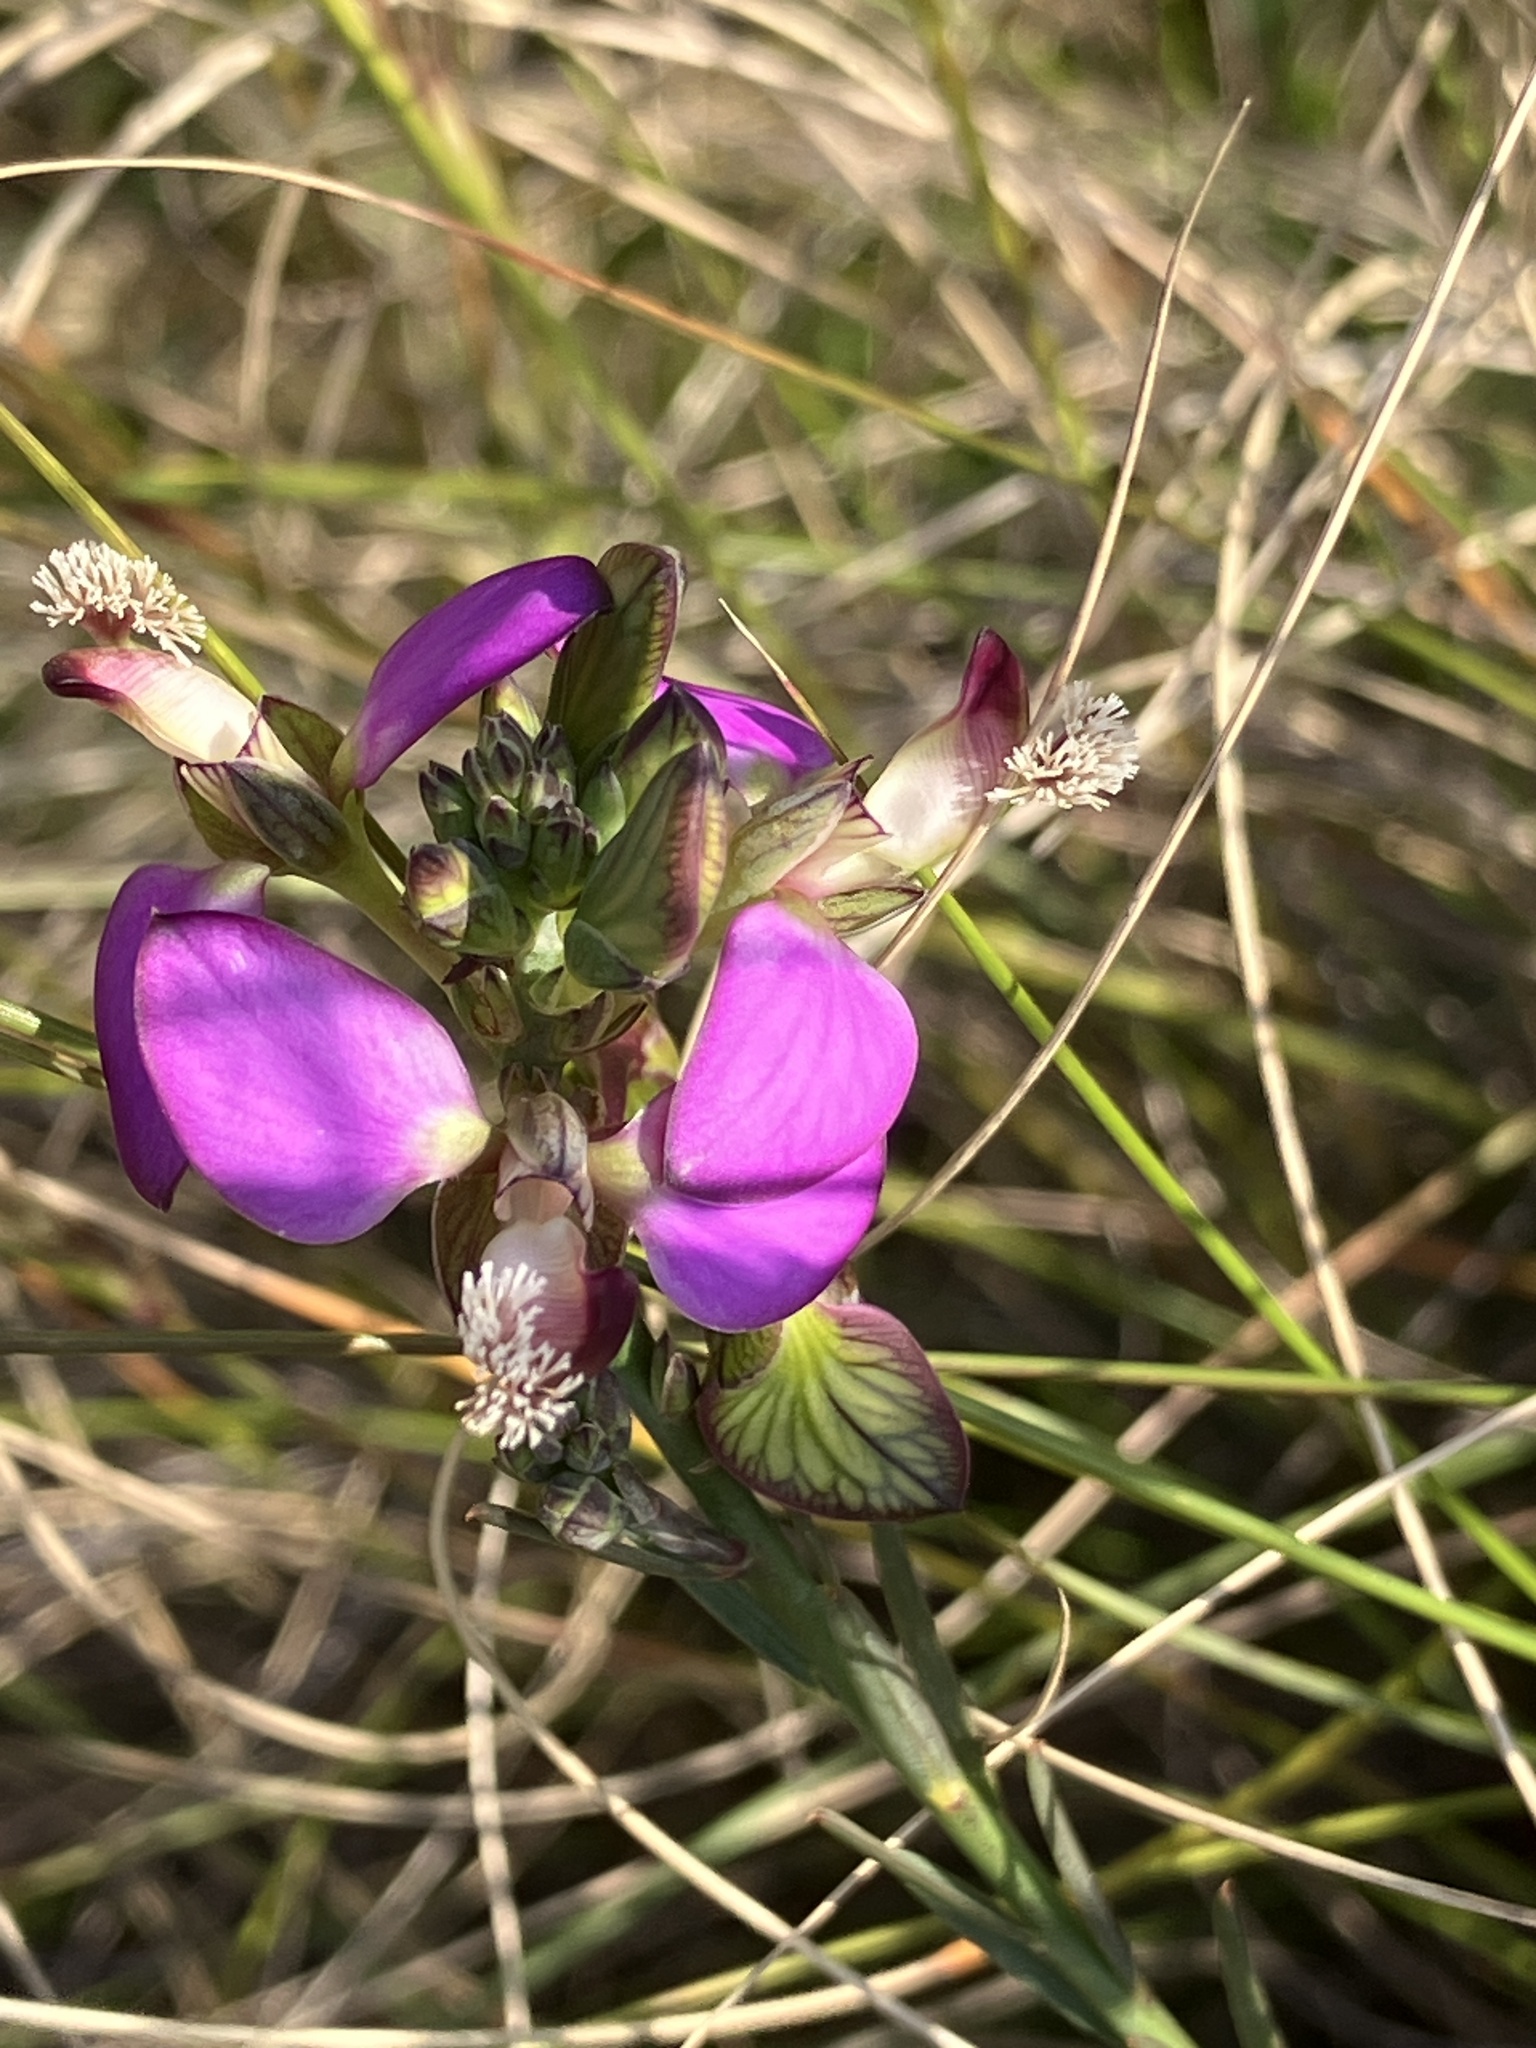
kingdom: Plantae
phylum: Tracheophyta
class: Magnoliopsida
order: Fabales
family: Polygalaceae
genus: Polygala
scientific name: Polygala bracteolata
